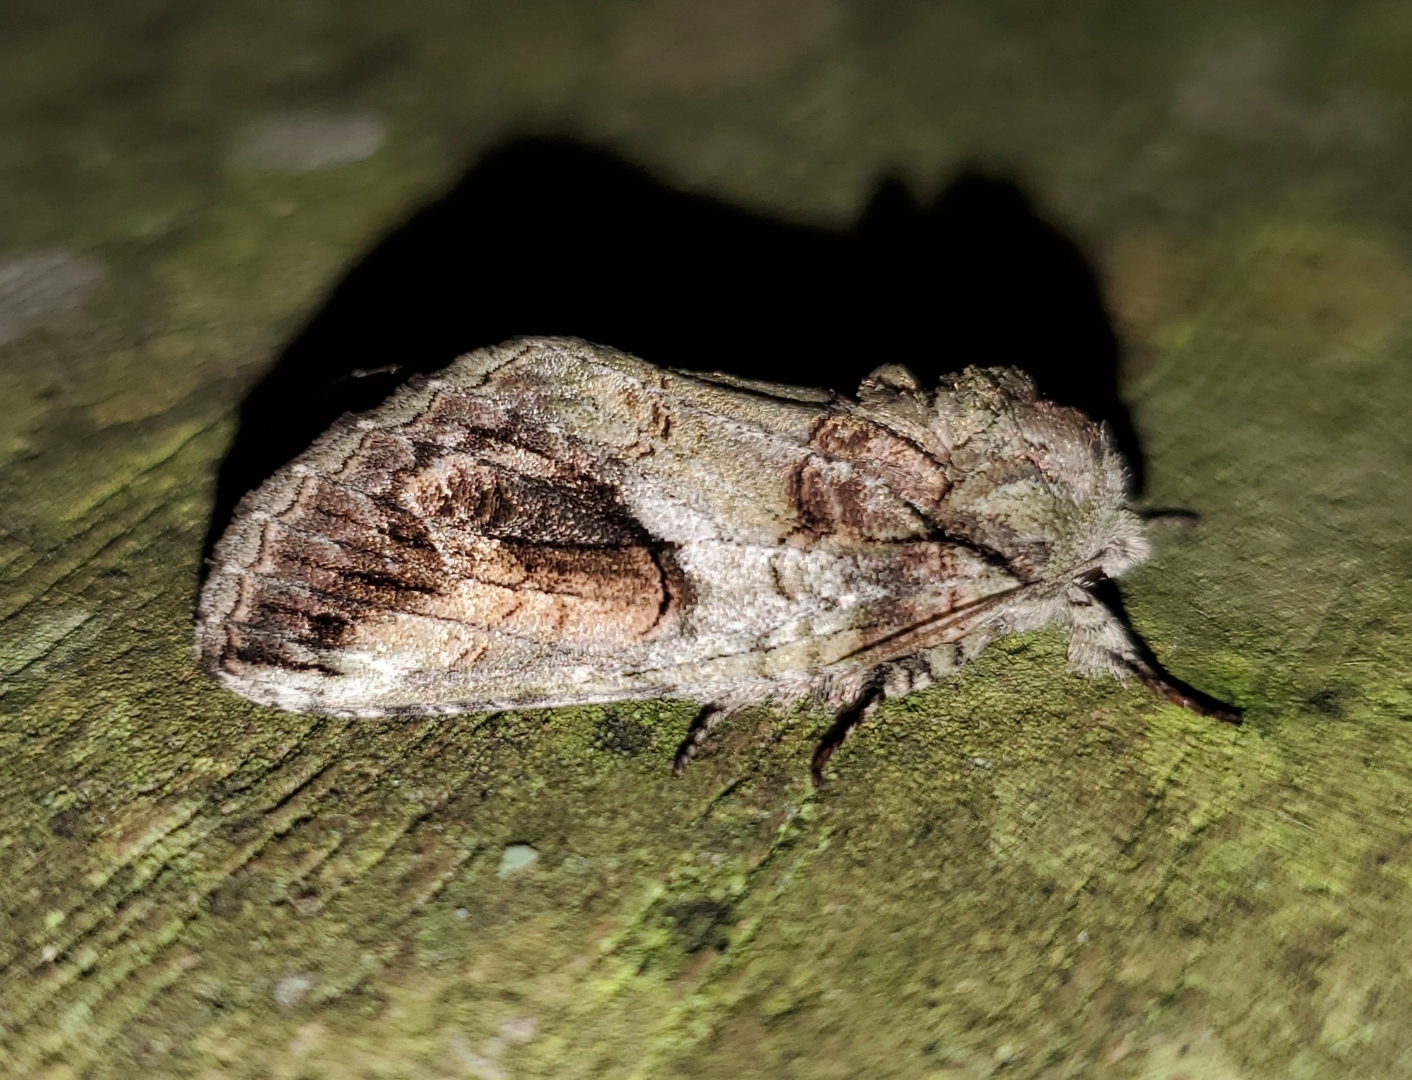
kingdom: Animalia
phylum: Arthropoda
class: Insecta
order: Lepidoptera
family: Notodontidae
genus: Heterocampa
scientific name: Heterocampa obliqua
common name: Oblique heterocampa
